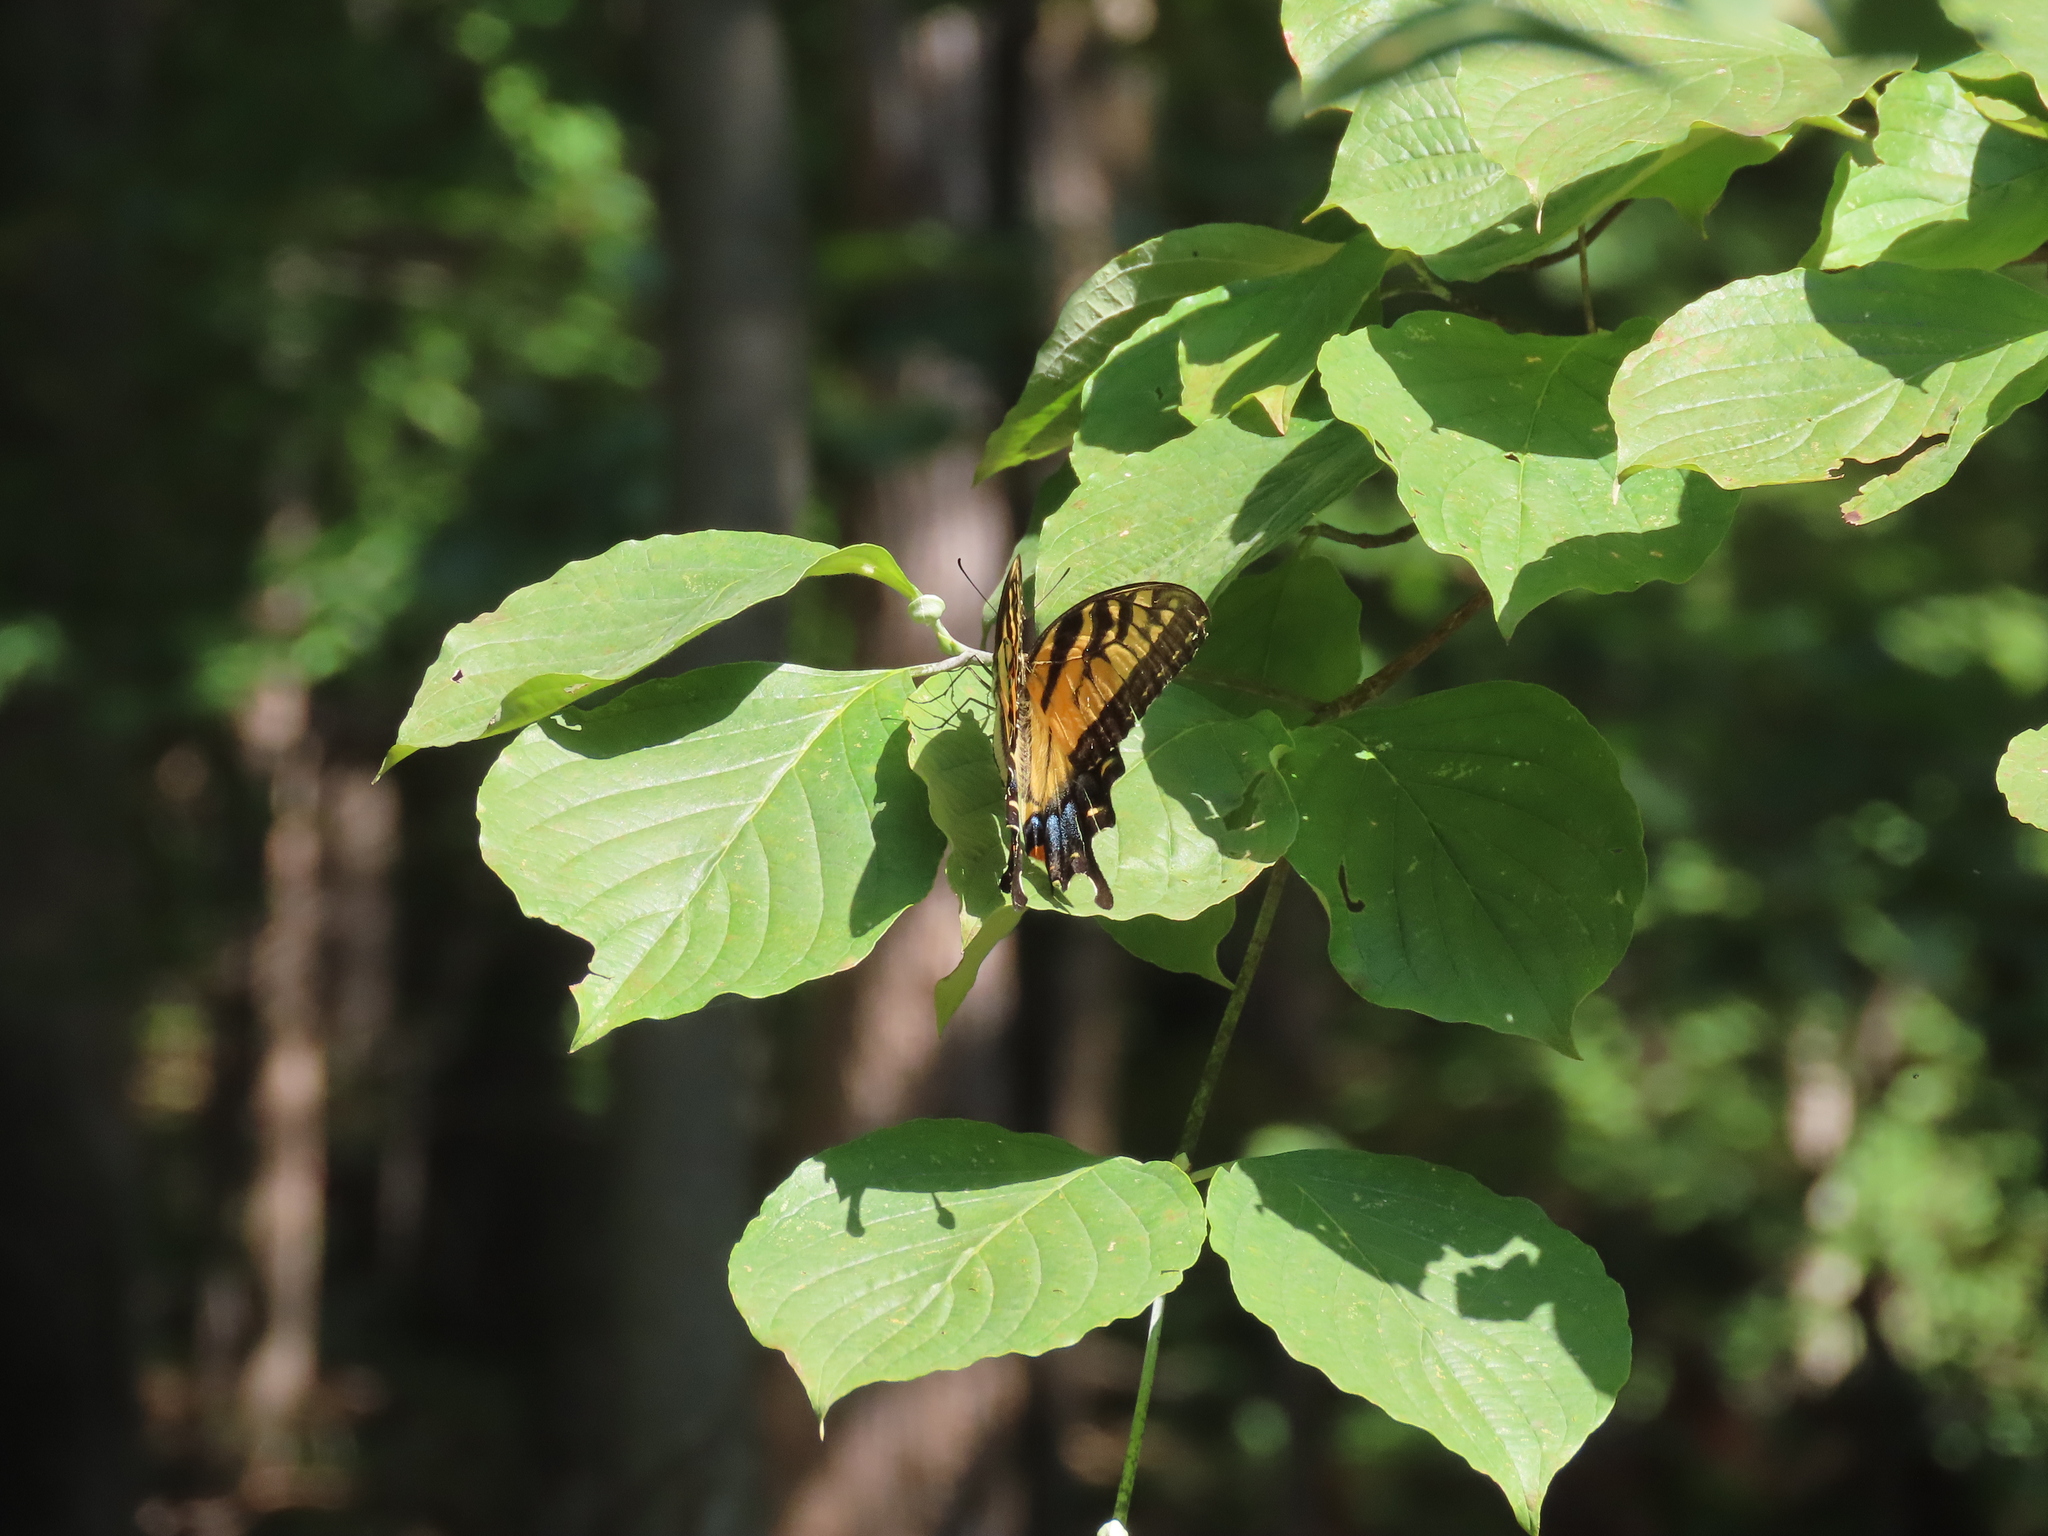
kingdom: Animalia
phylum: Arthropoda
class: Insecta
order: Lepidoptera
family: Papilionidae
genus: Papilio
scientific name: Papilio glaucus
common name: Tiger swallowtail
